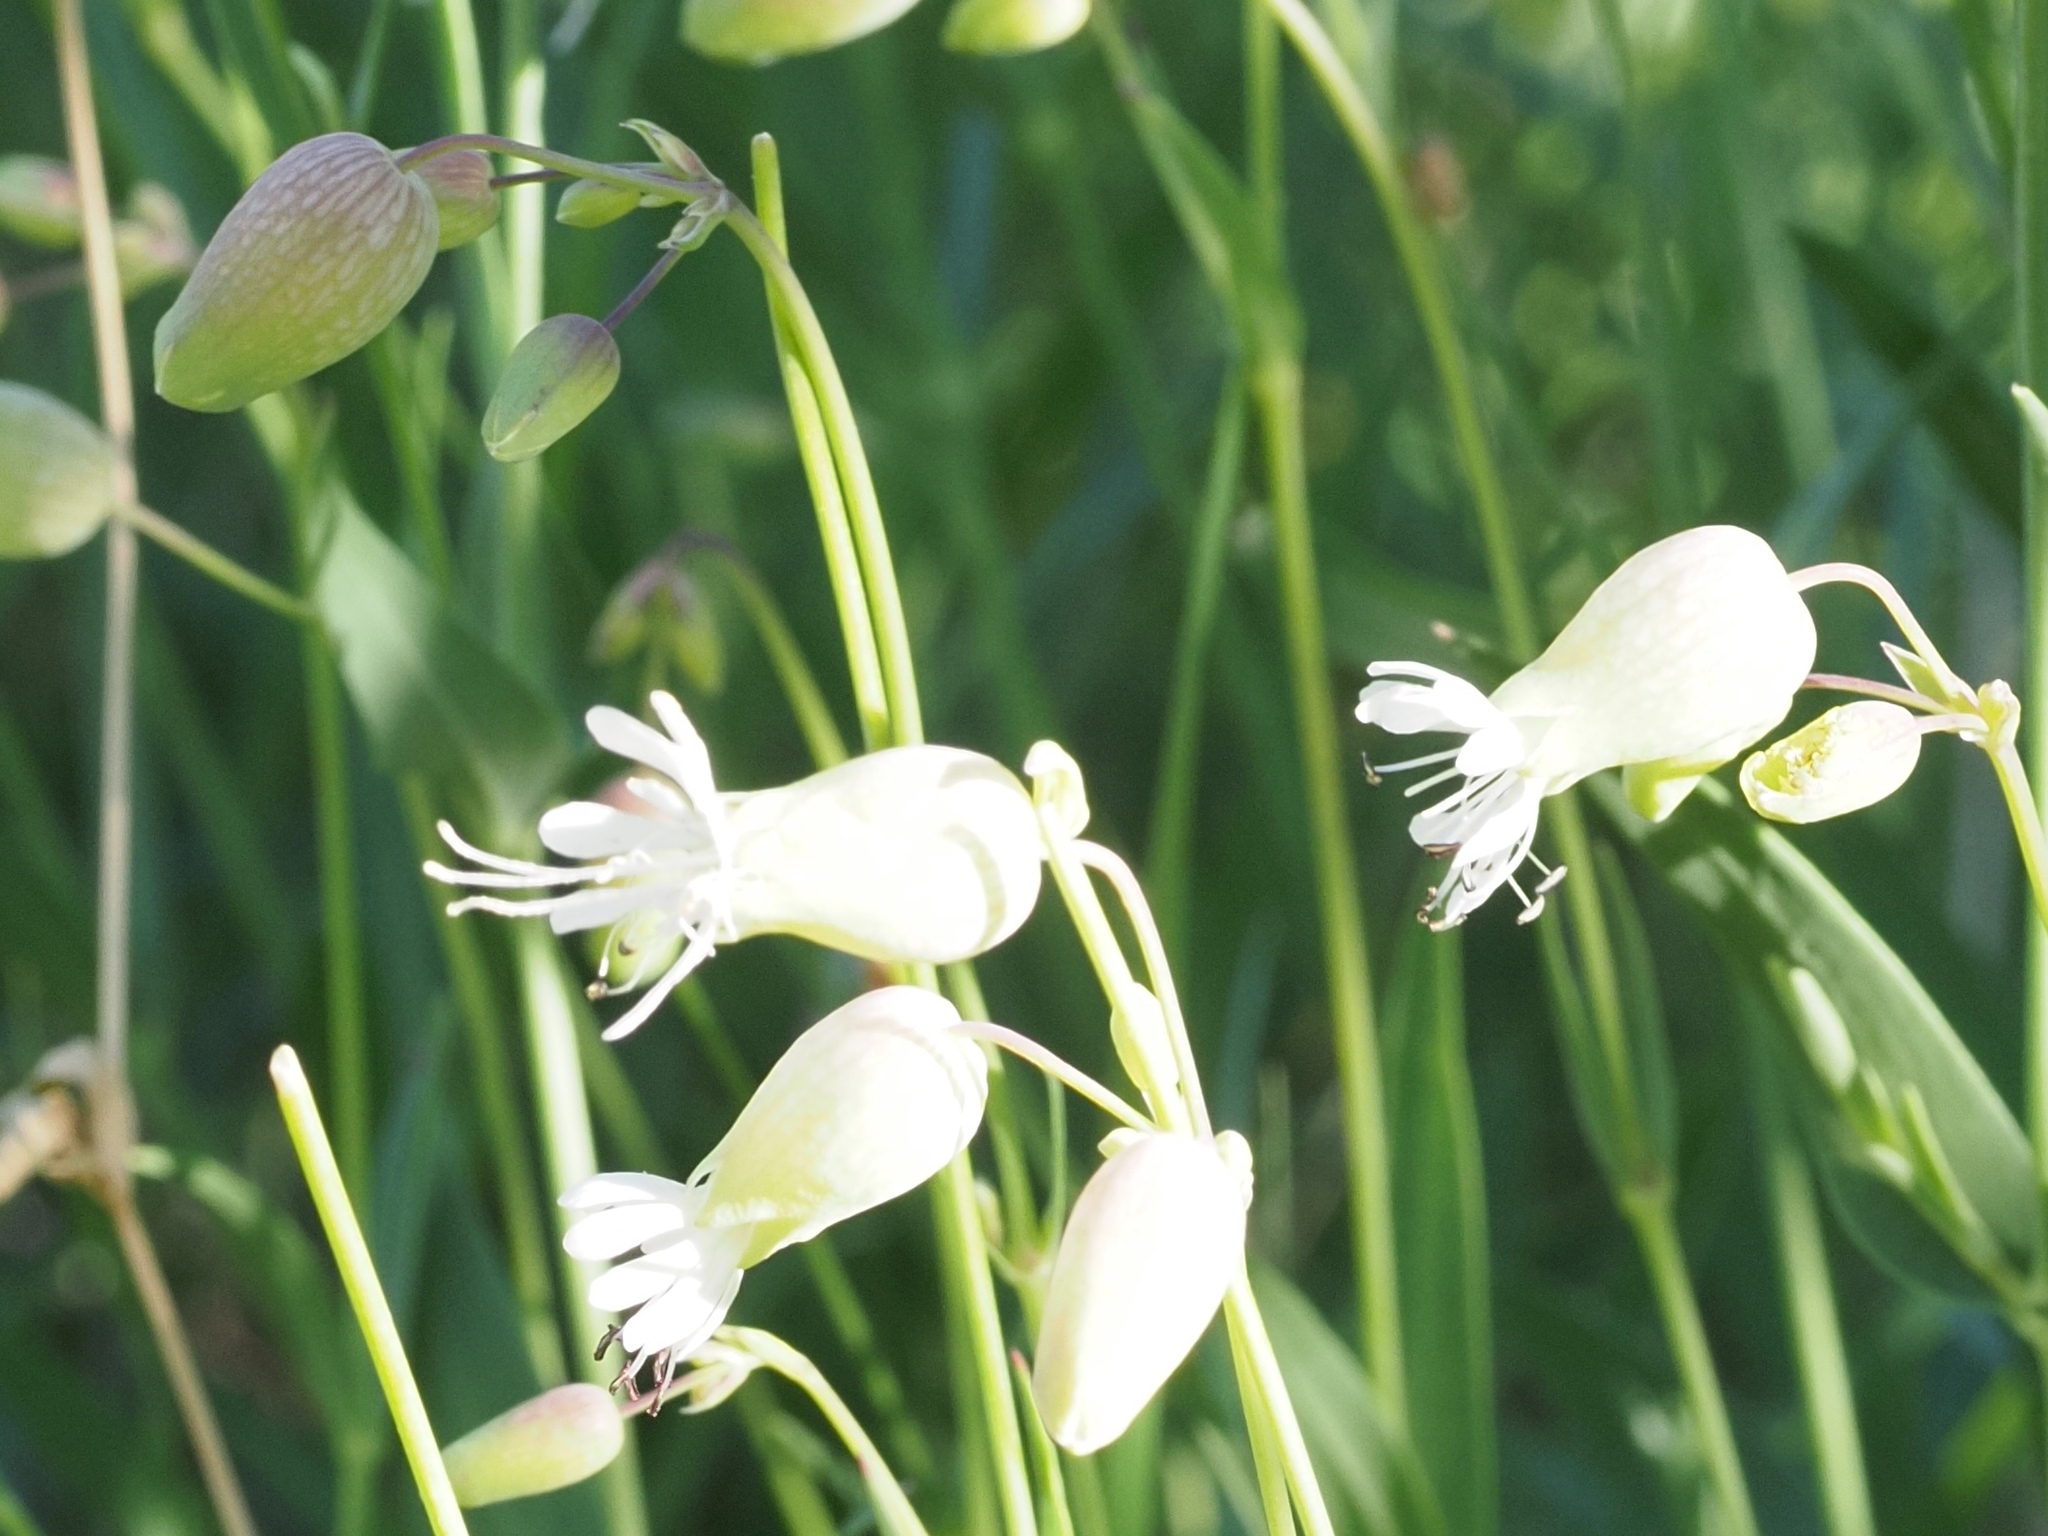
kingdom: Plantae
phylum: Tracheophyta
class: Magnoliopsida
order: Caryophyllales
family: Caryophyllaceae
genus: Silene
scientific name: Silene vulgaris
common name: Bladder campion
